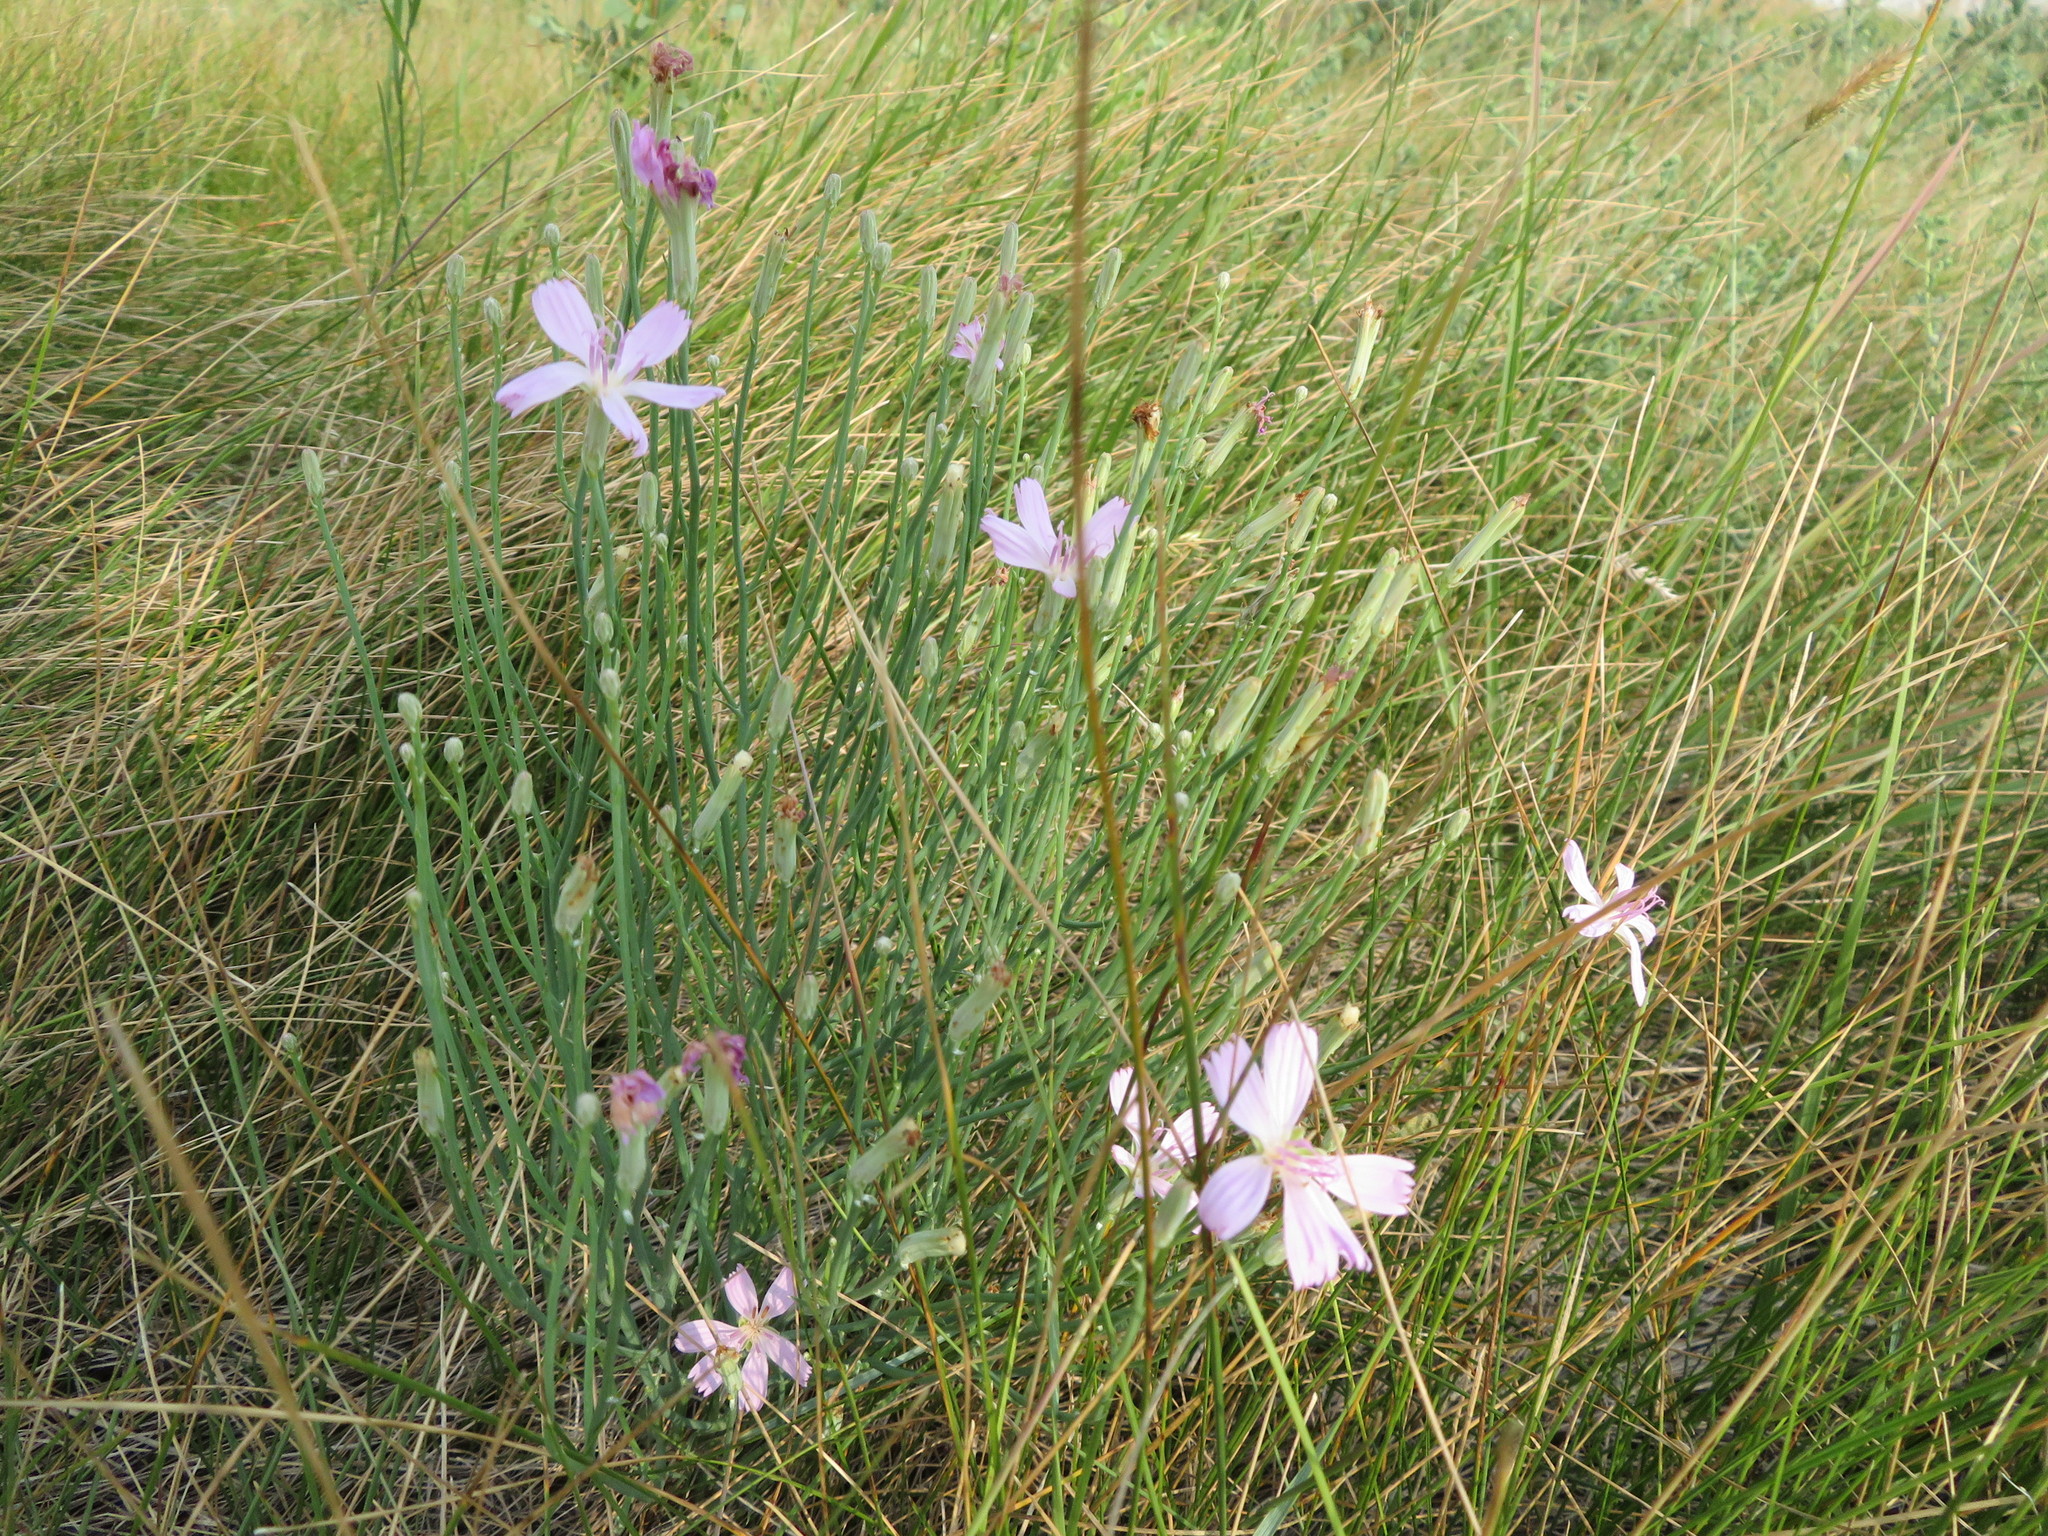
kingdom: Plantae
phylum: Tracheophyta
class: Magnoliopsida
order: Asterales
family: Asteraceae
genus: Lygodesmia
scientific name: Lygodesmia juncea
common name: Common skeletonweed
